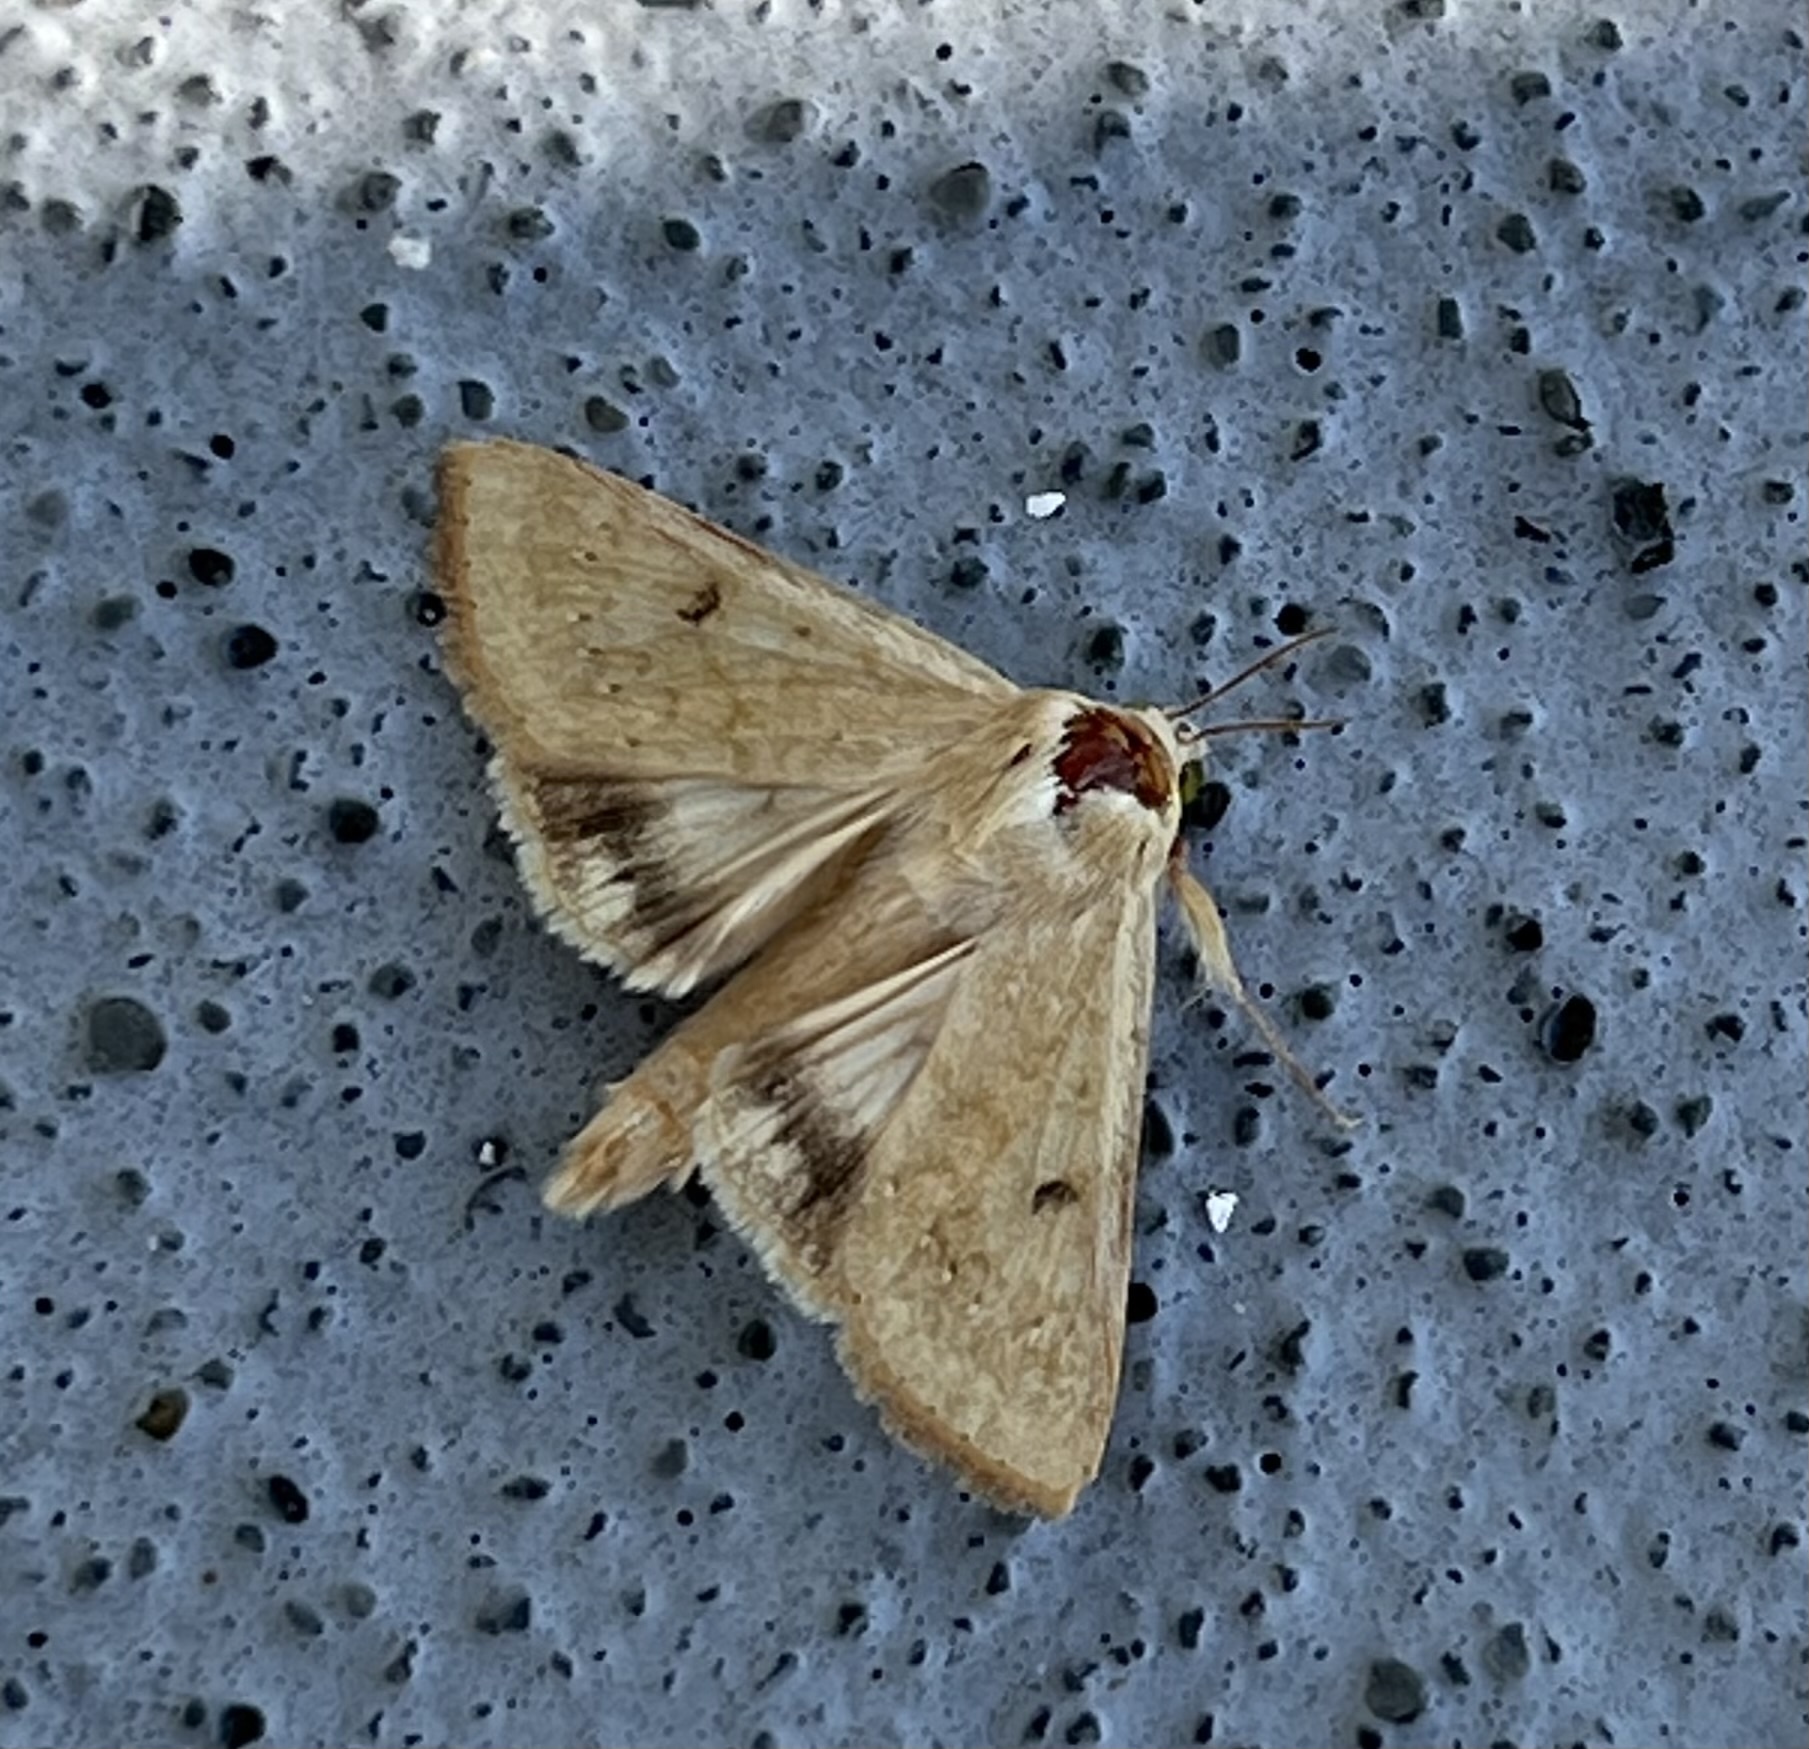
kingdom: Animalia
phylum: Arthropoda
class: Insecta
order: Lepidoptera
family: Noctuidae
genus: Helicoverpa
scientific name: Helicoverpa zea
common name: Bollworm
